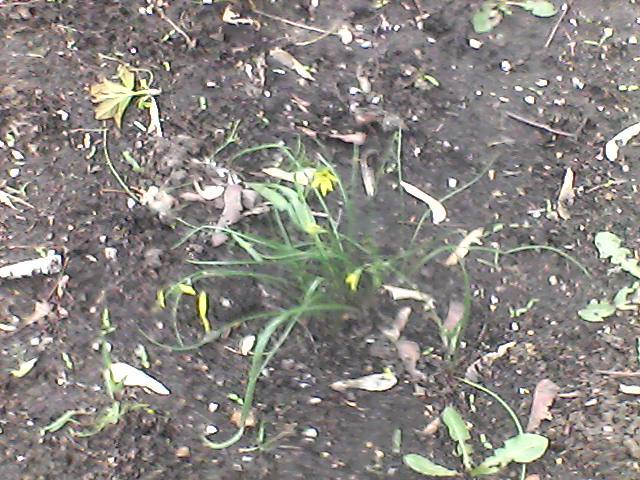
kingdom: Plantae
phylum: Tracheophyta
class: Liliopsida
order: Liliales
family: Liliaceae
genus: Gagea
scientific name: Gagea minima
